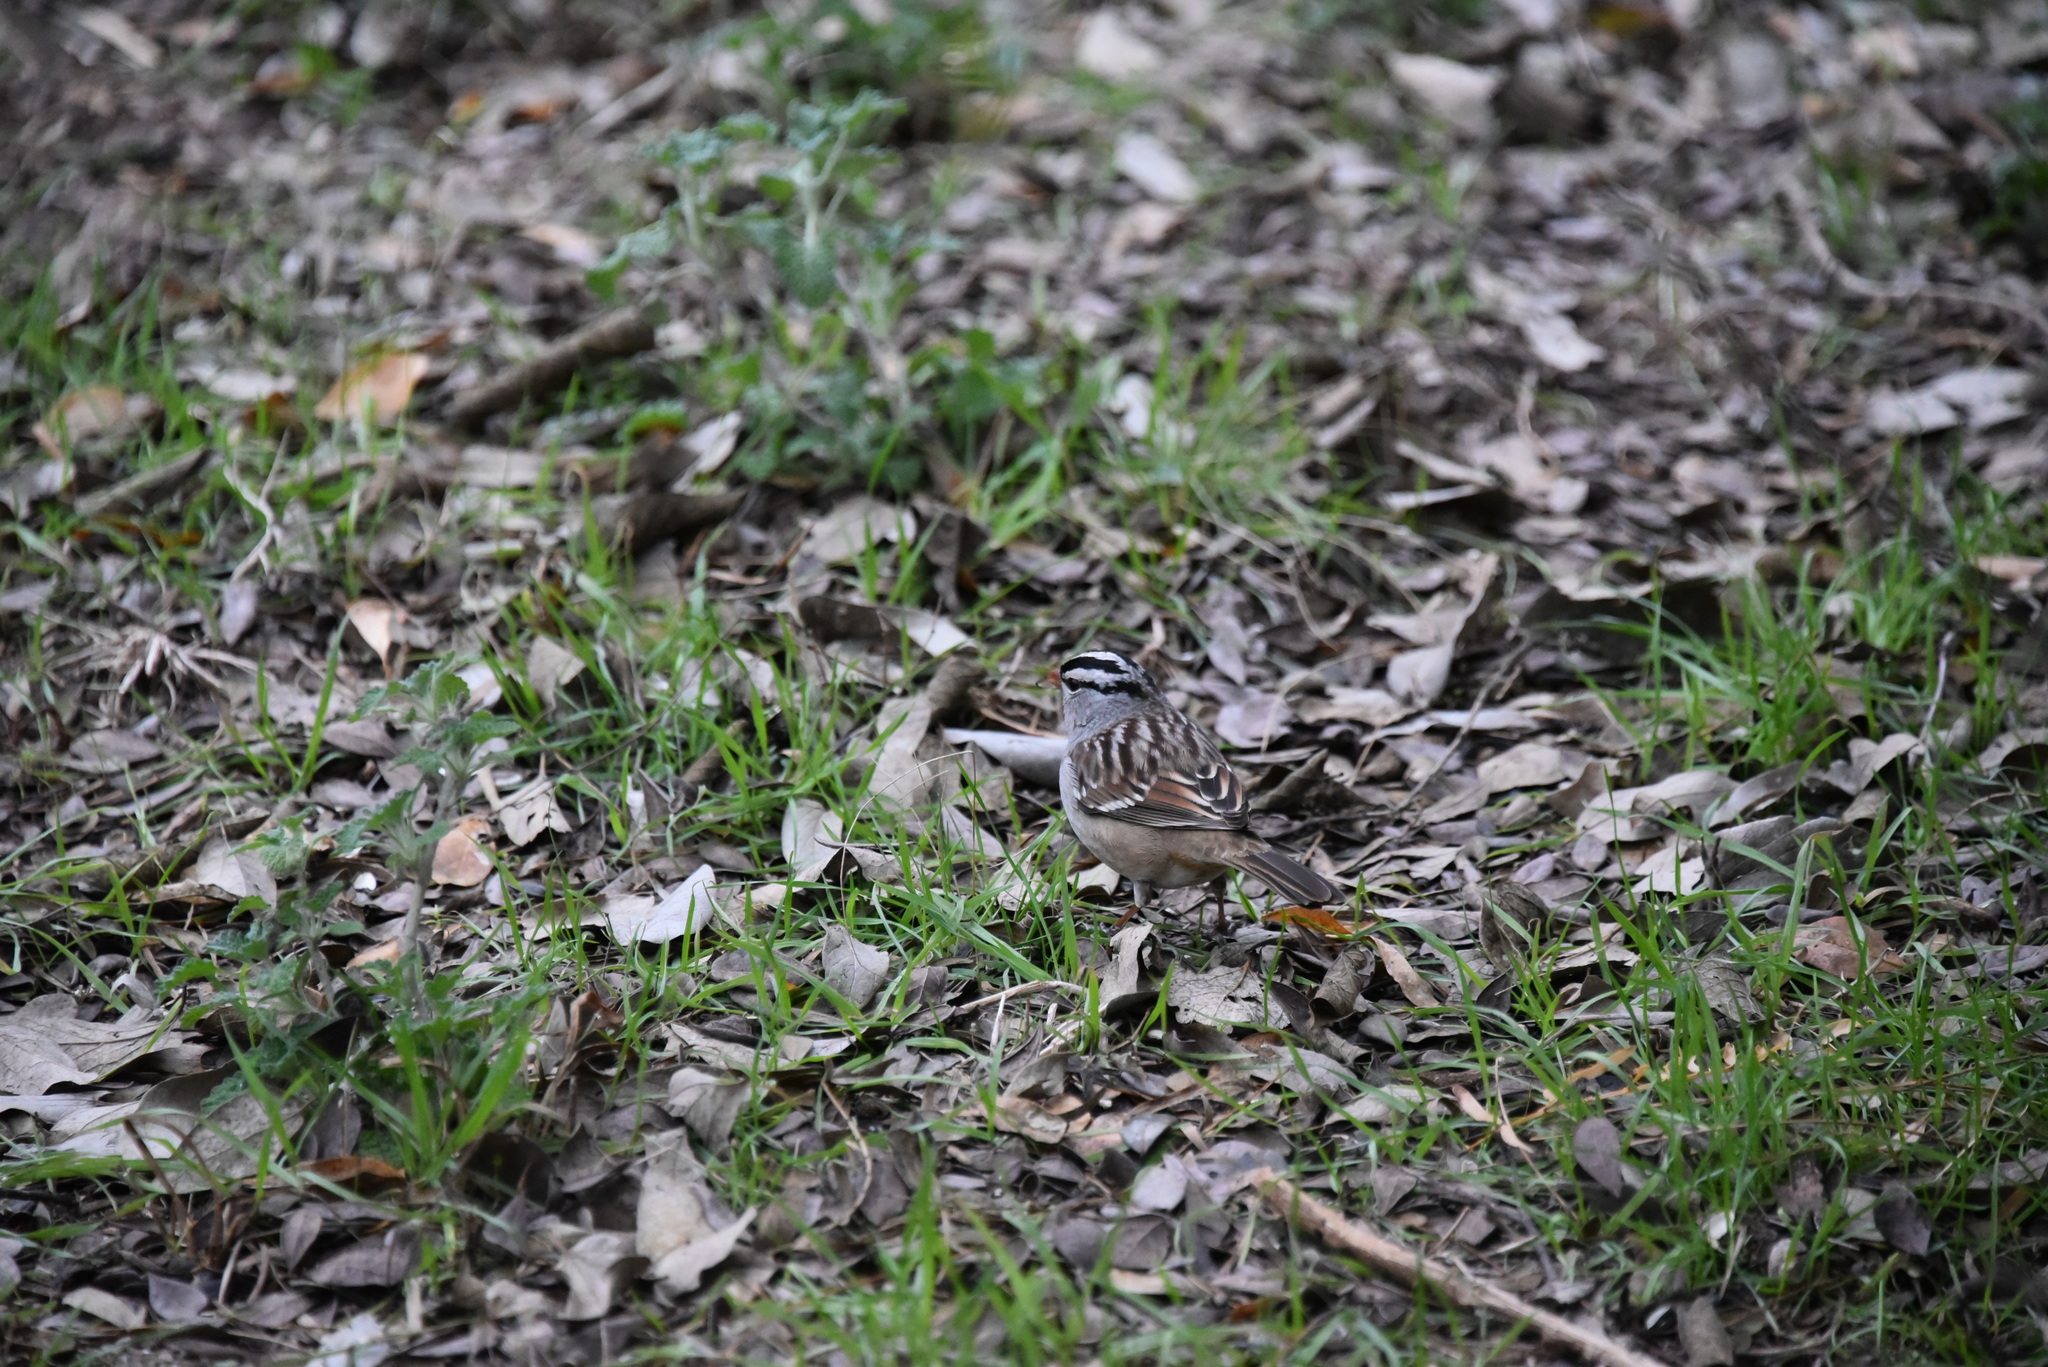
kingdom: Animalia
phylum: Chordata
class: Aves
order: Passeriformes
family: Passerellidae
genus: Zonotrichia
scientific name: Zonotrichia leucophrys
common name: White-crowned sparrow
